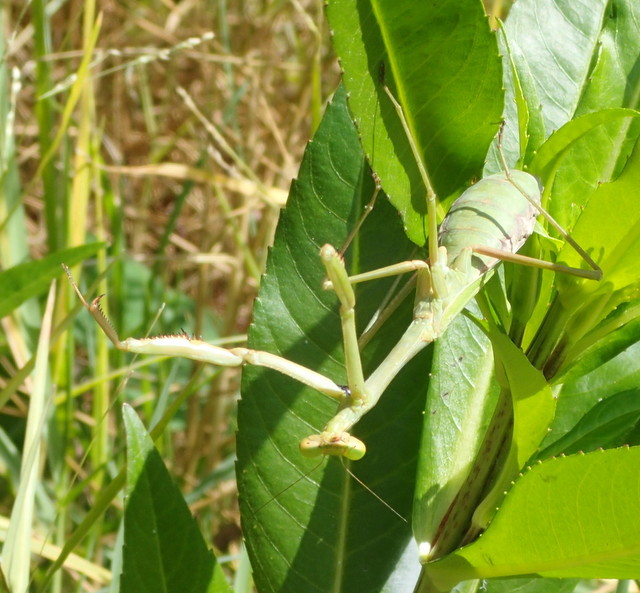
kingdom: Animalia
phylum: Arthropoda
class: Insecta
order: Mantodea
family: Mantidae
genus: Stagmomantis
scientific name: Stagmomantis carolina
